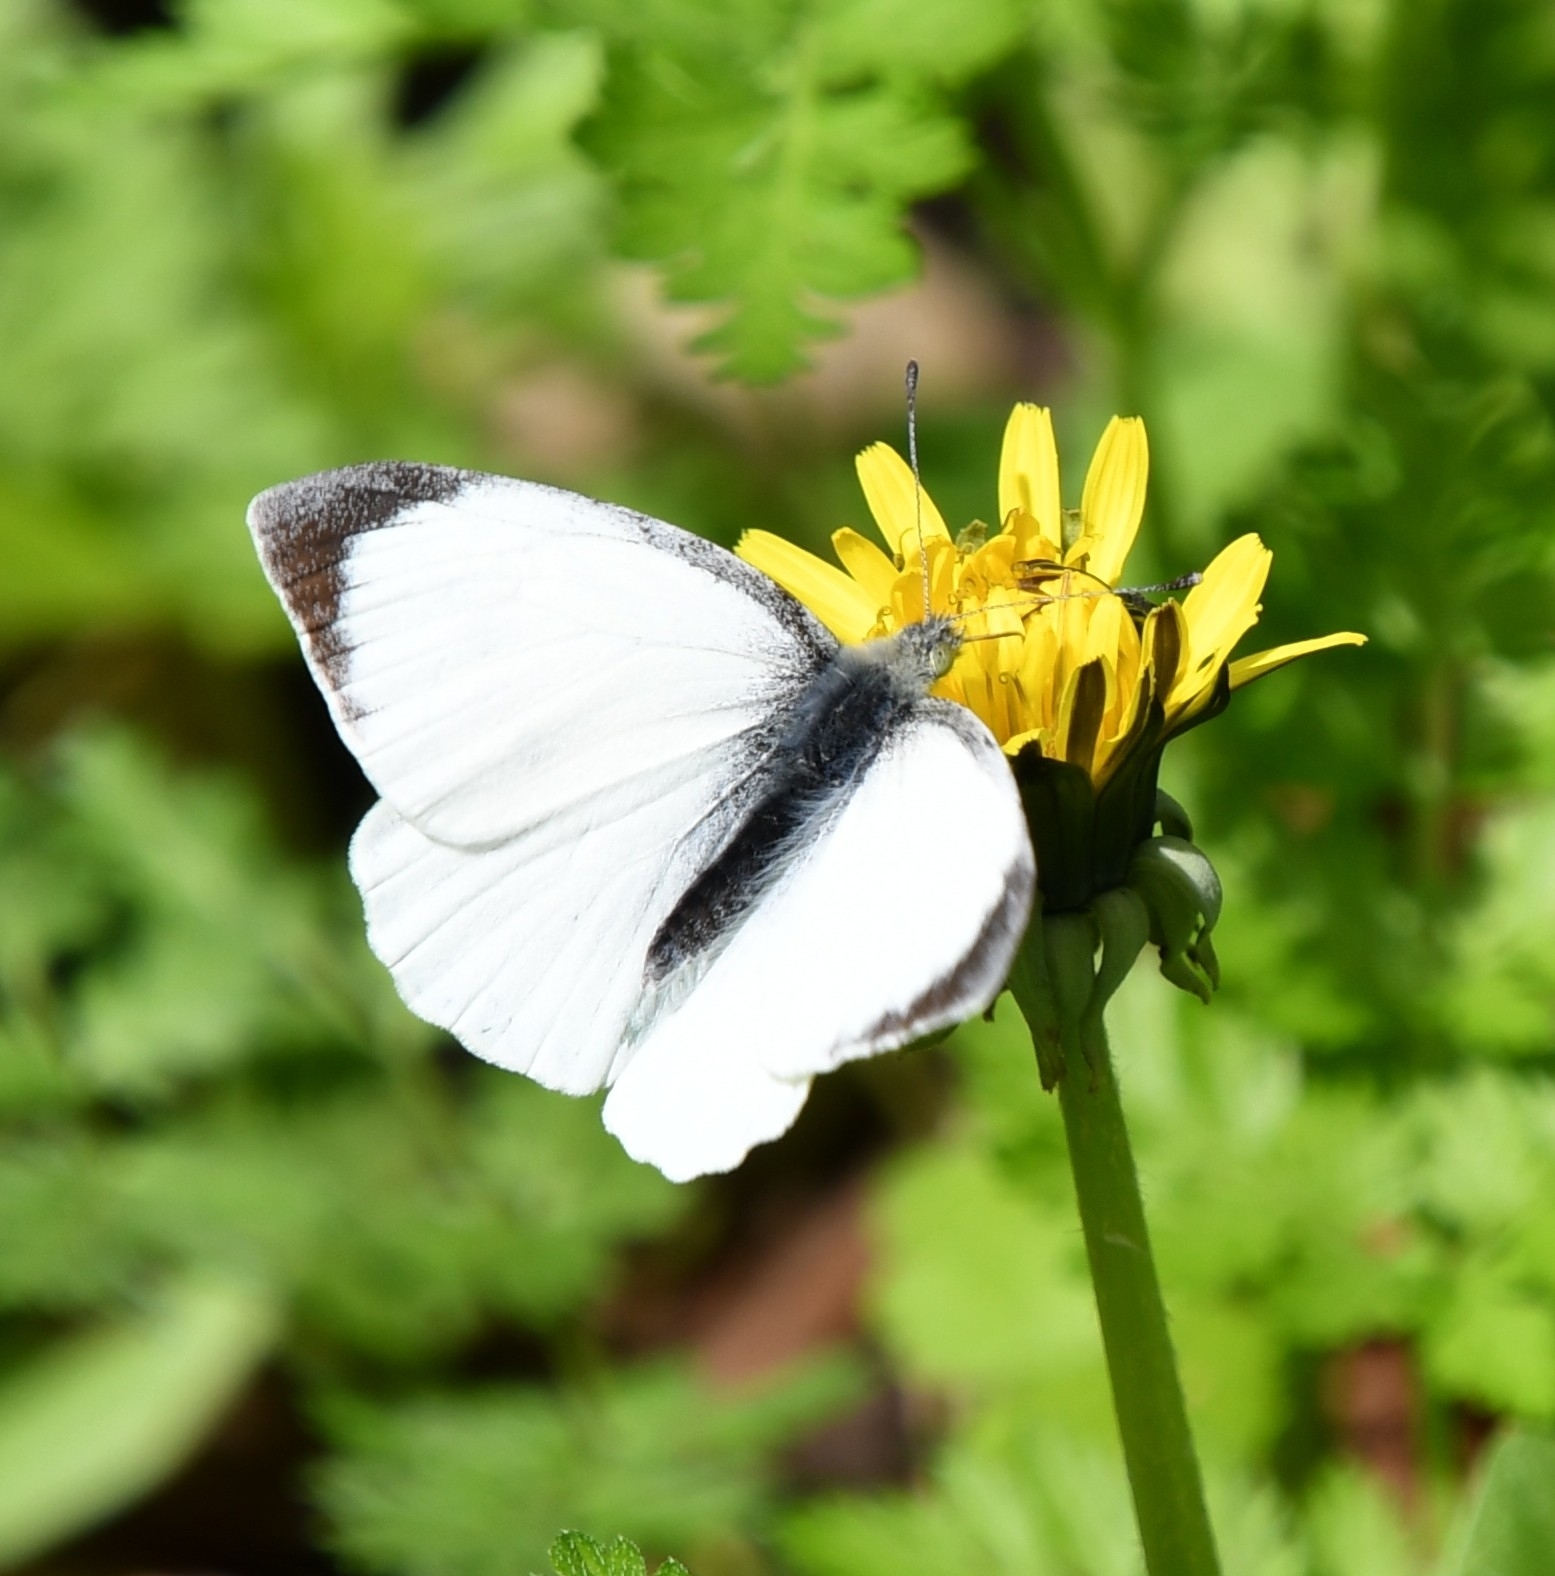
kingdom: Animalia
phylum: Arthropoda
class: Insecta
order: Lepidoptera
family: Pieridae
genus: Pieris
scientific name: Pieris brassicae
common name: Large white
